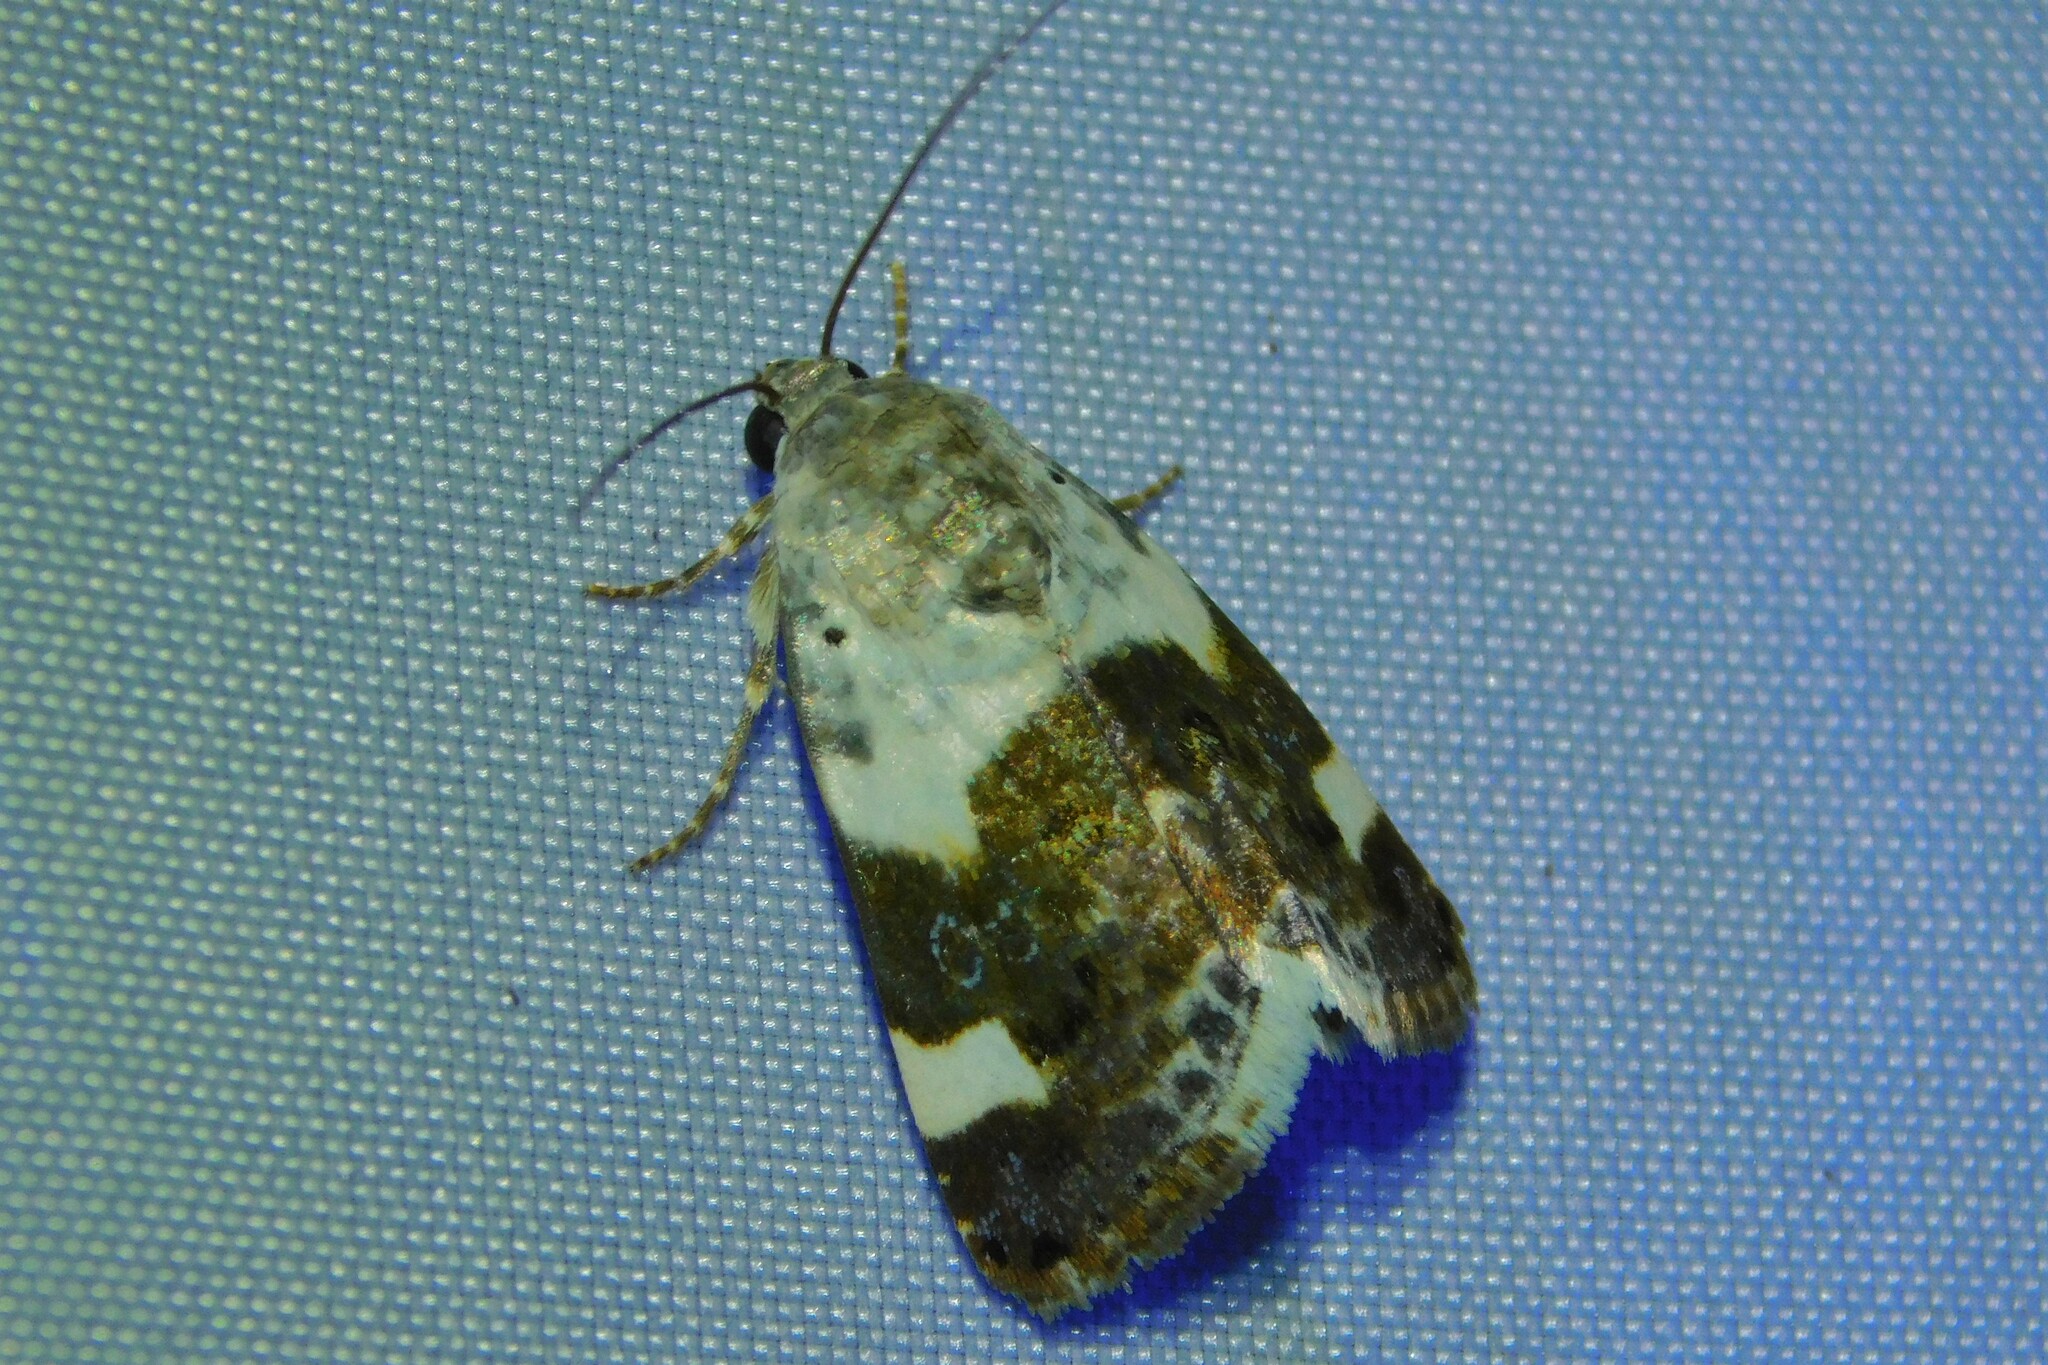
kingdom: Animalia
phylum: Arthropoda
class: Insecta
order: Lepidoptera
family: Noctuidae
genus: Acontia
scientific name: Acontia lucida
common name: Pale shoulder
